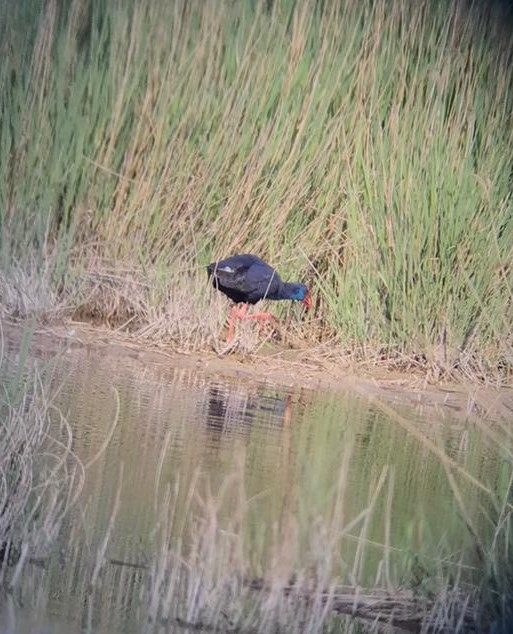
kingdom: Animalia
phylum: Chordata
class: Aves
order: Gruiformes
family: Rallidae
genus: Porphyrio
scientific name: Porphyrio porphyrio
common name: Purple swamphen
